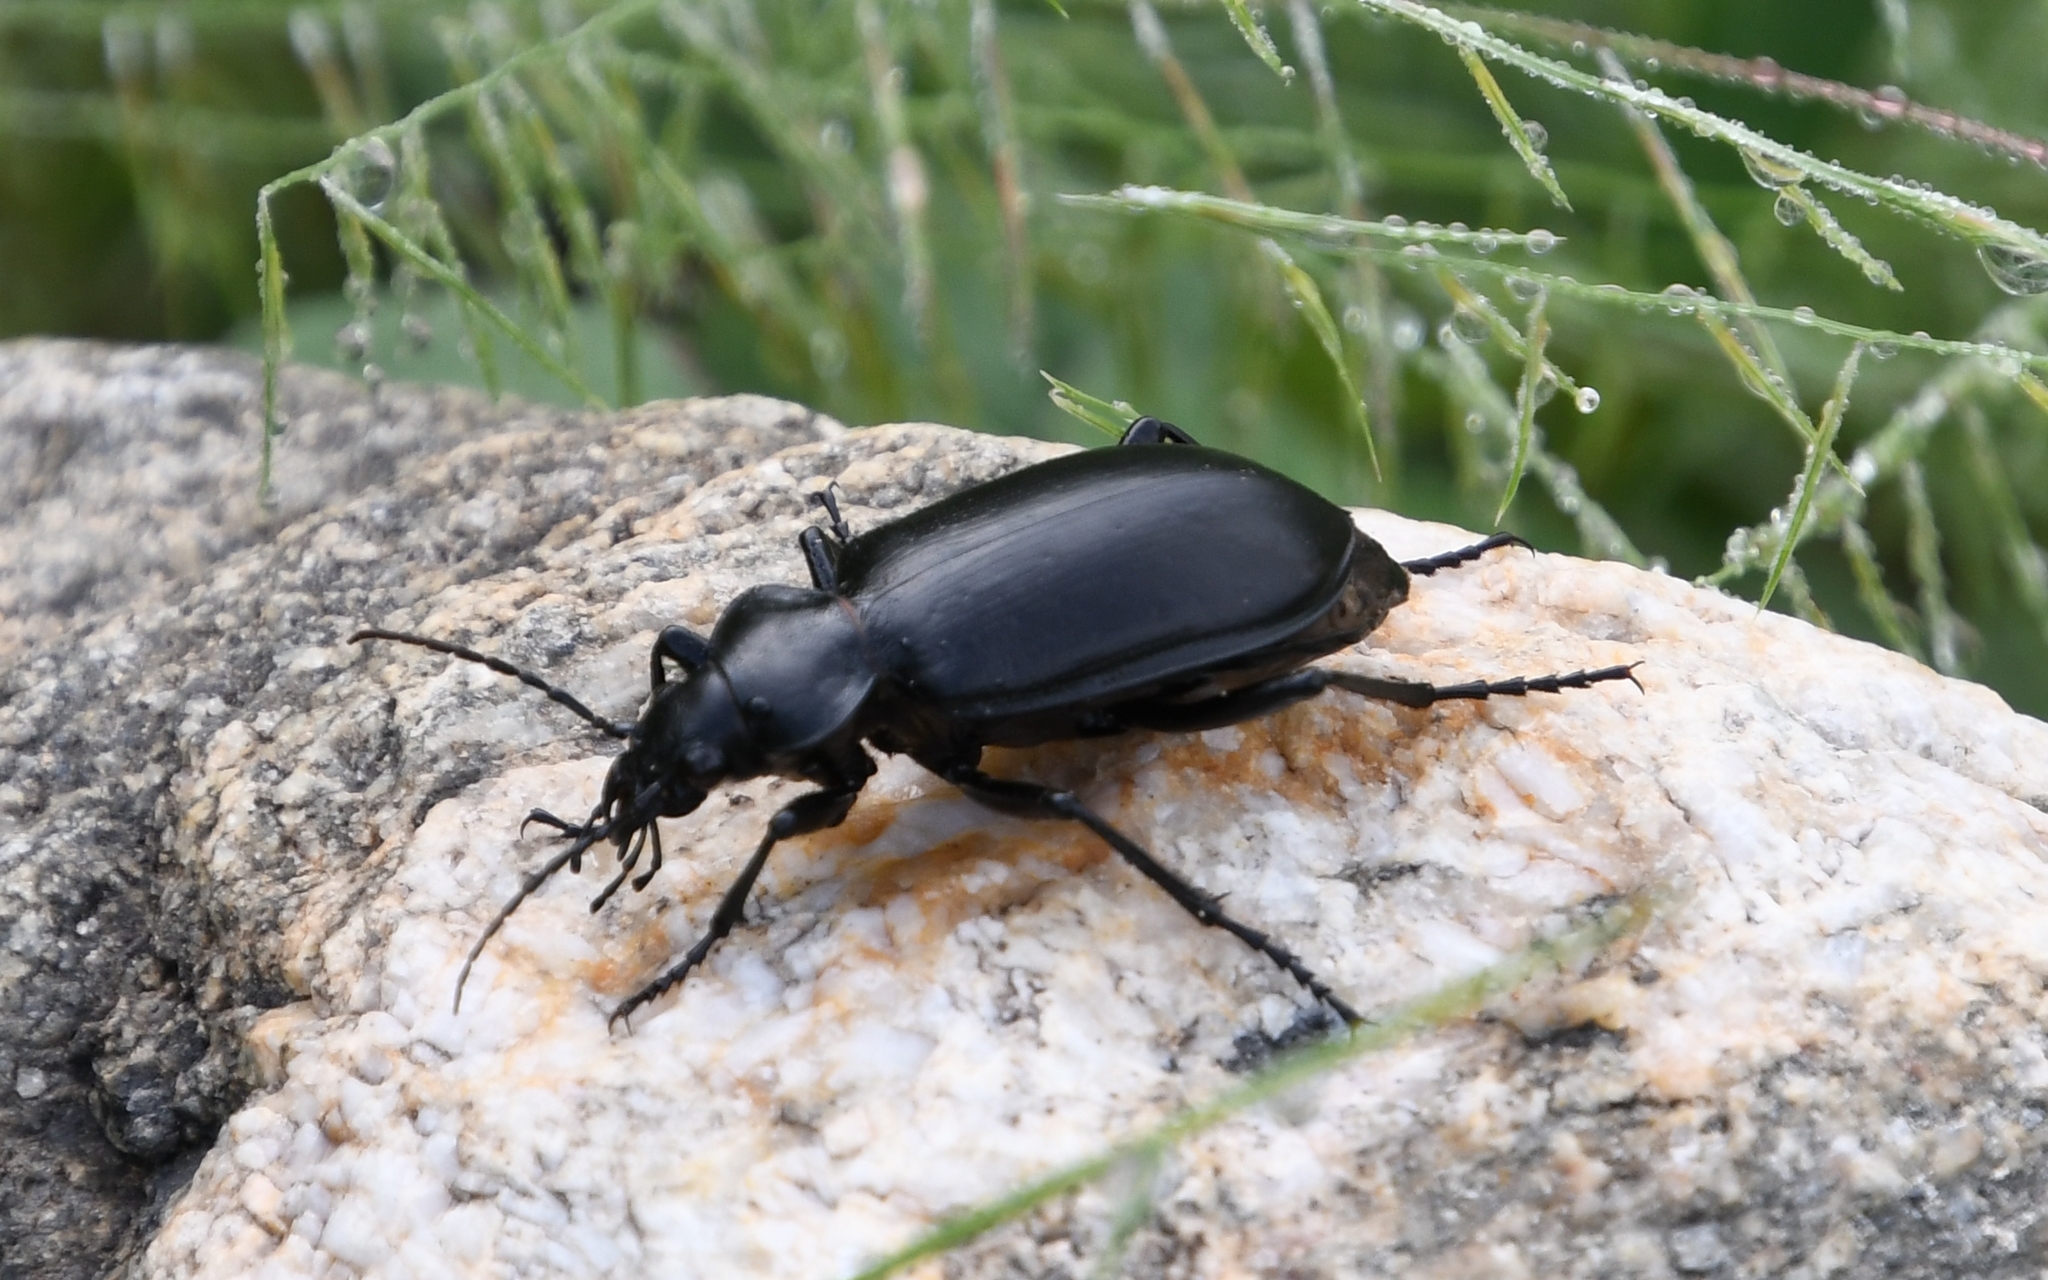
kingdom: Animalia
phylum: Arthropoda
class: Insecta
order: Coleoptera
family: Carabidae
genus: Calosoma
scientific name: Calosoma peregrinator
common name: Ground beetle
